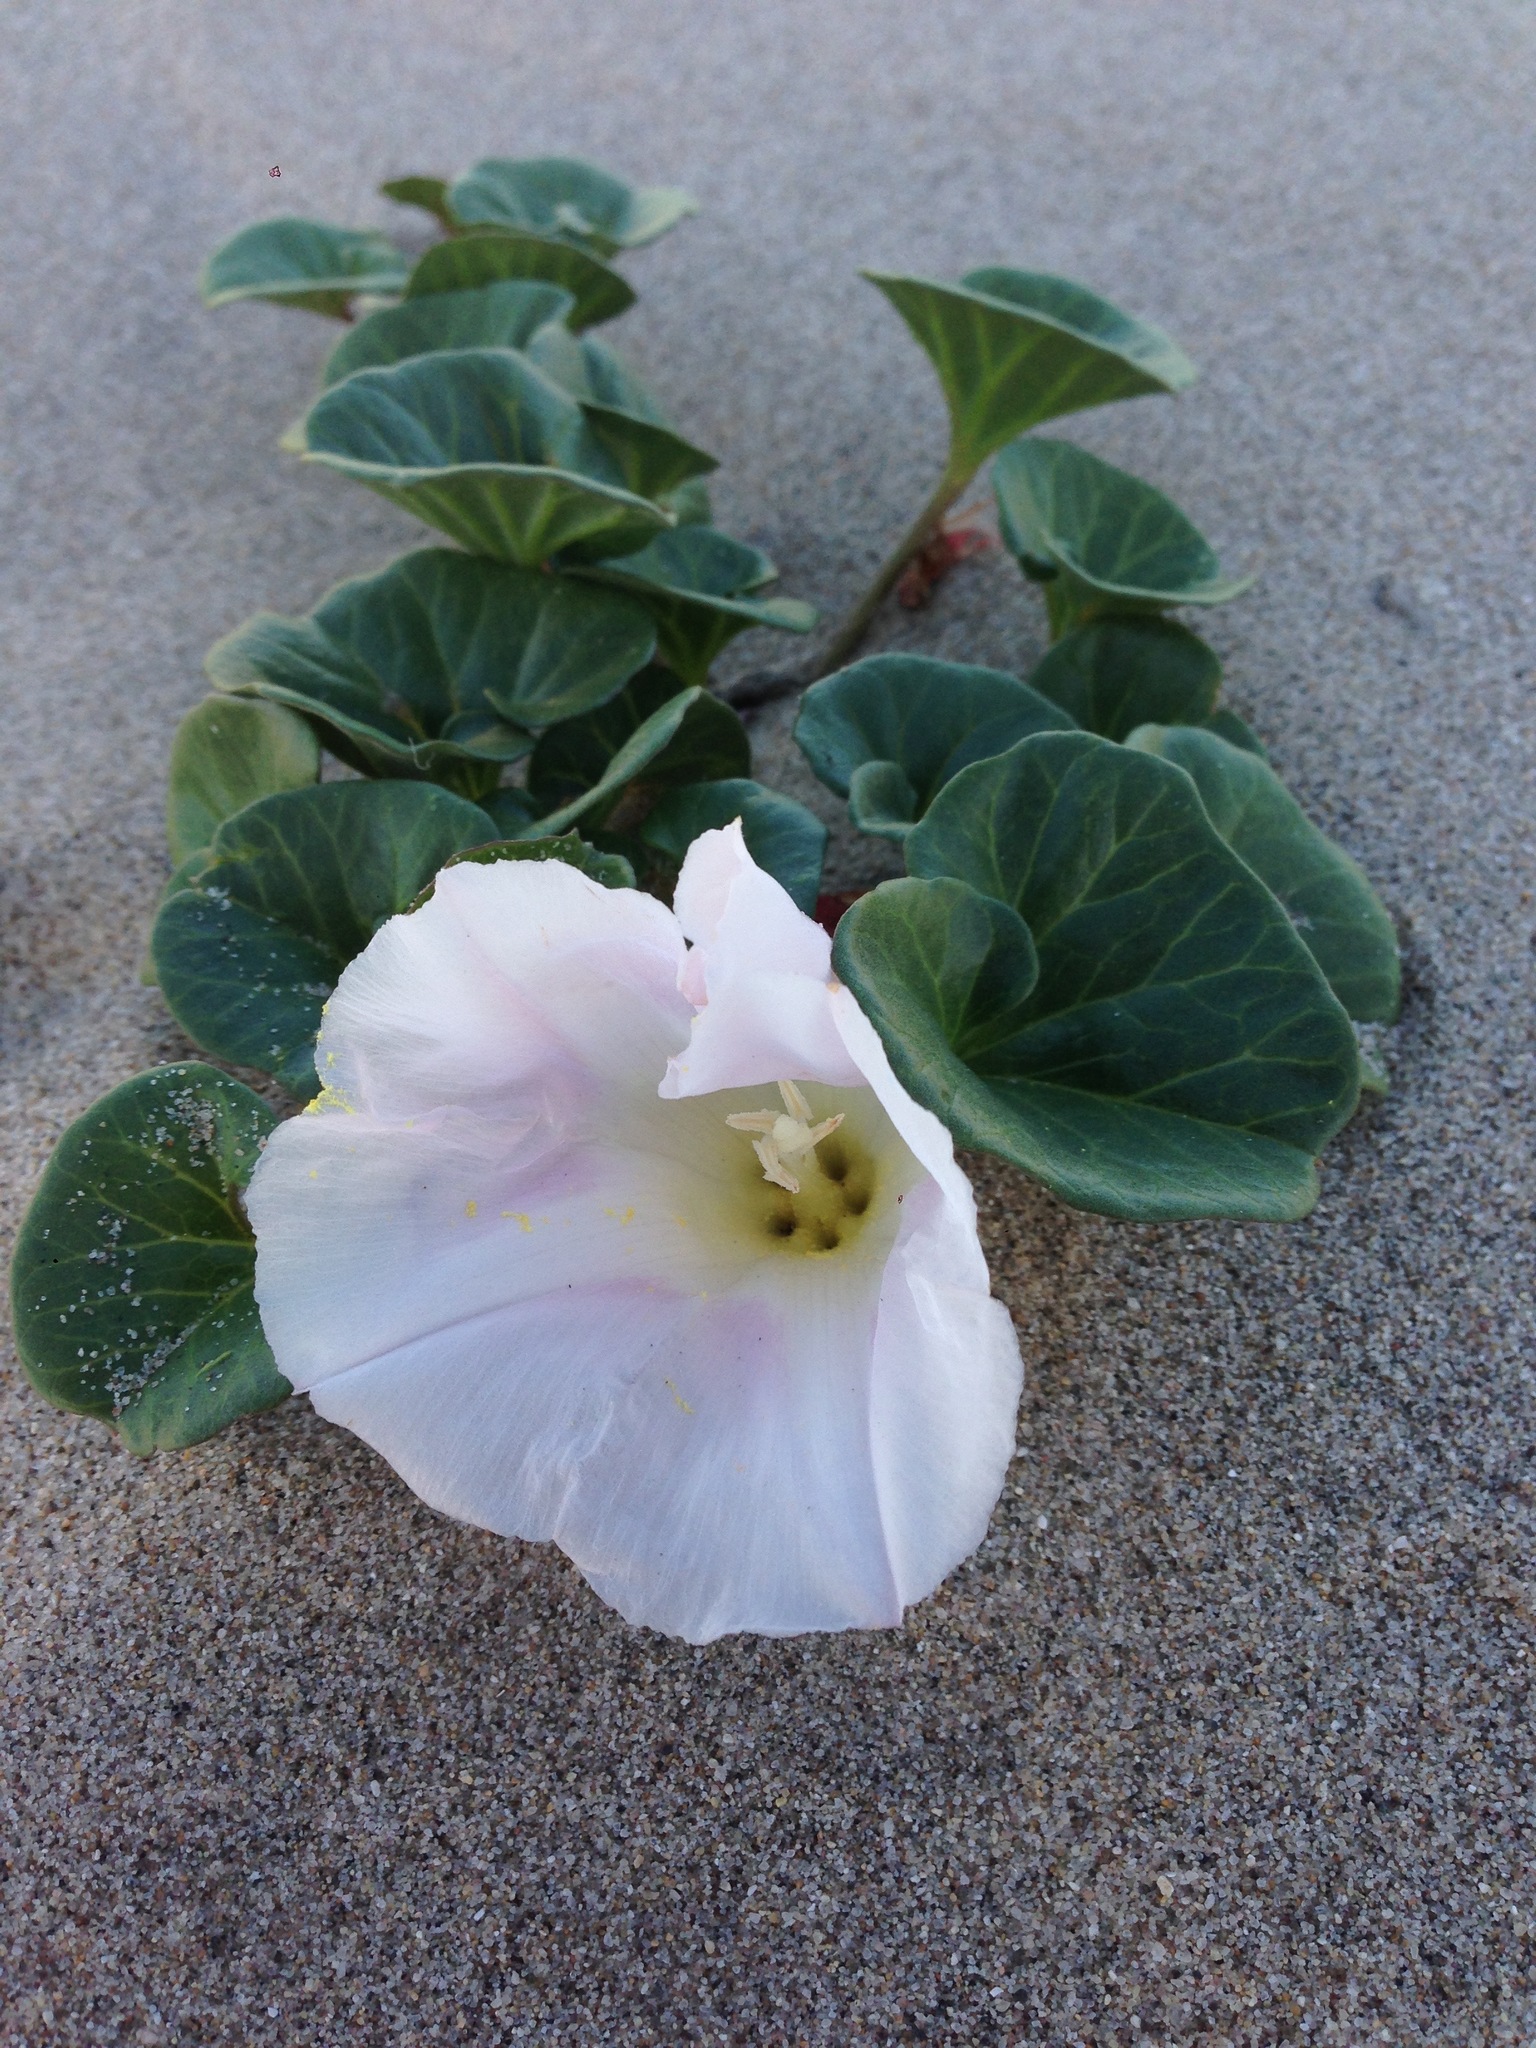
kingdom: Plantae
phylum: Tracheophyta
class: Magnoliopsida
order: Solanales
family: Convolvulaceae
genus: Calystegia
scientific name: Calystegia soldanella
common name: Sea bindweed
